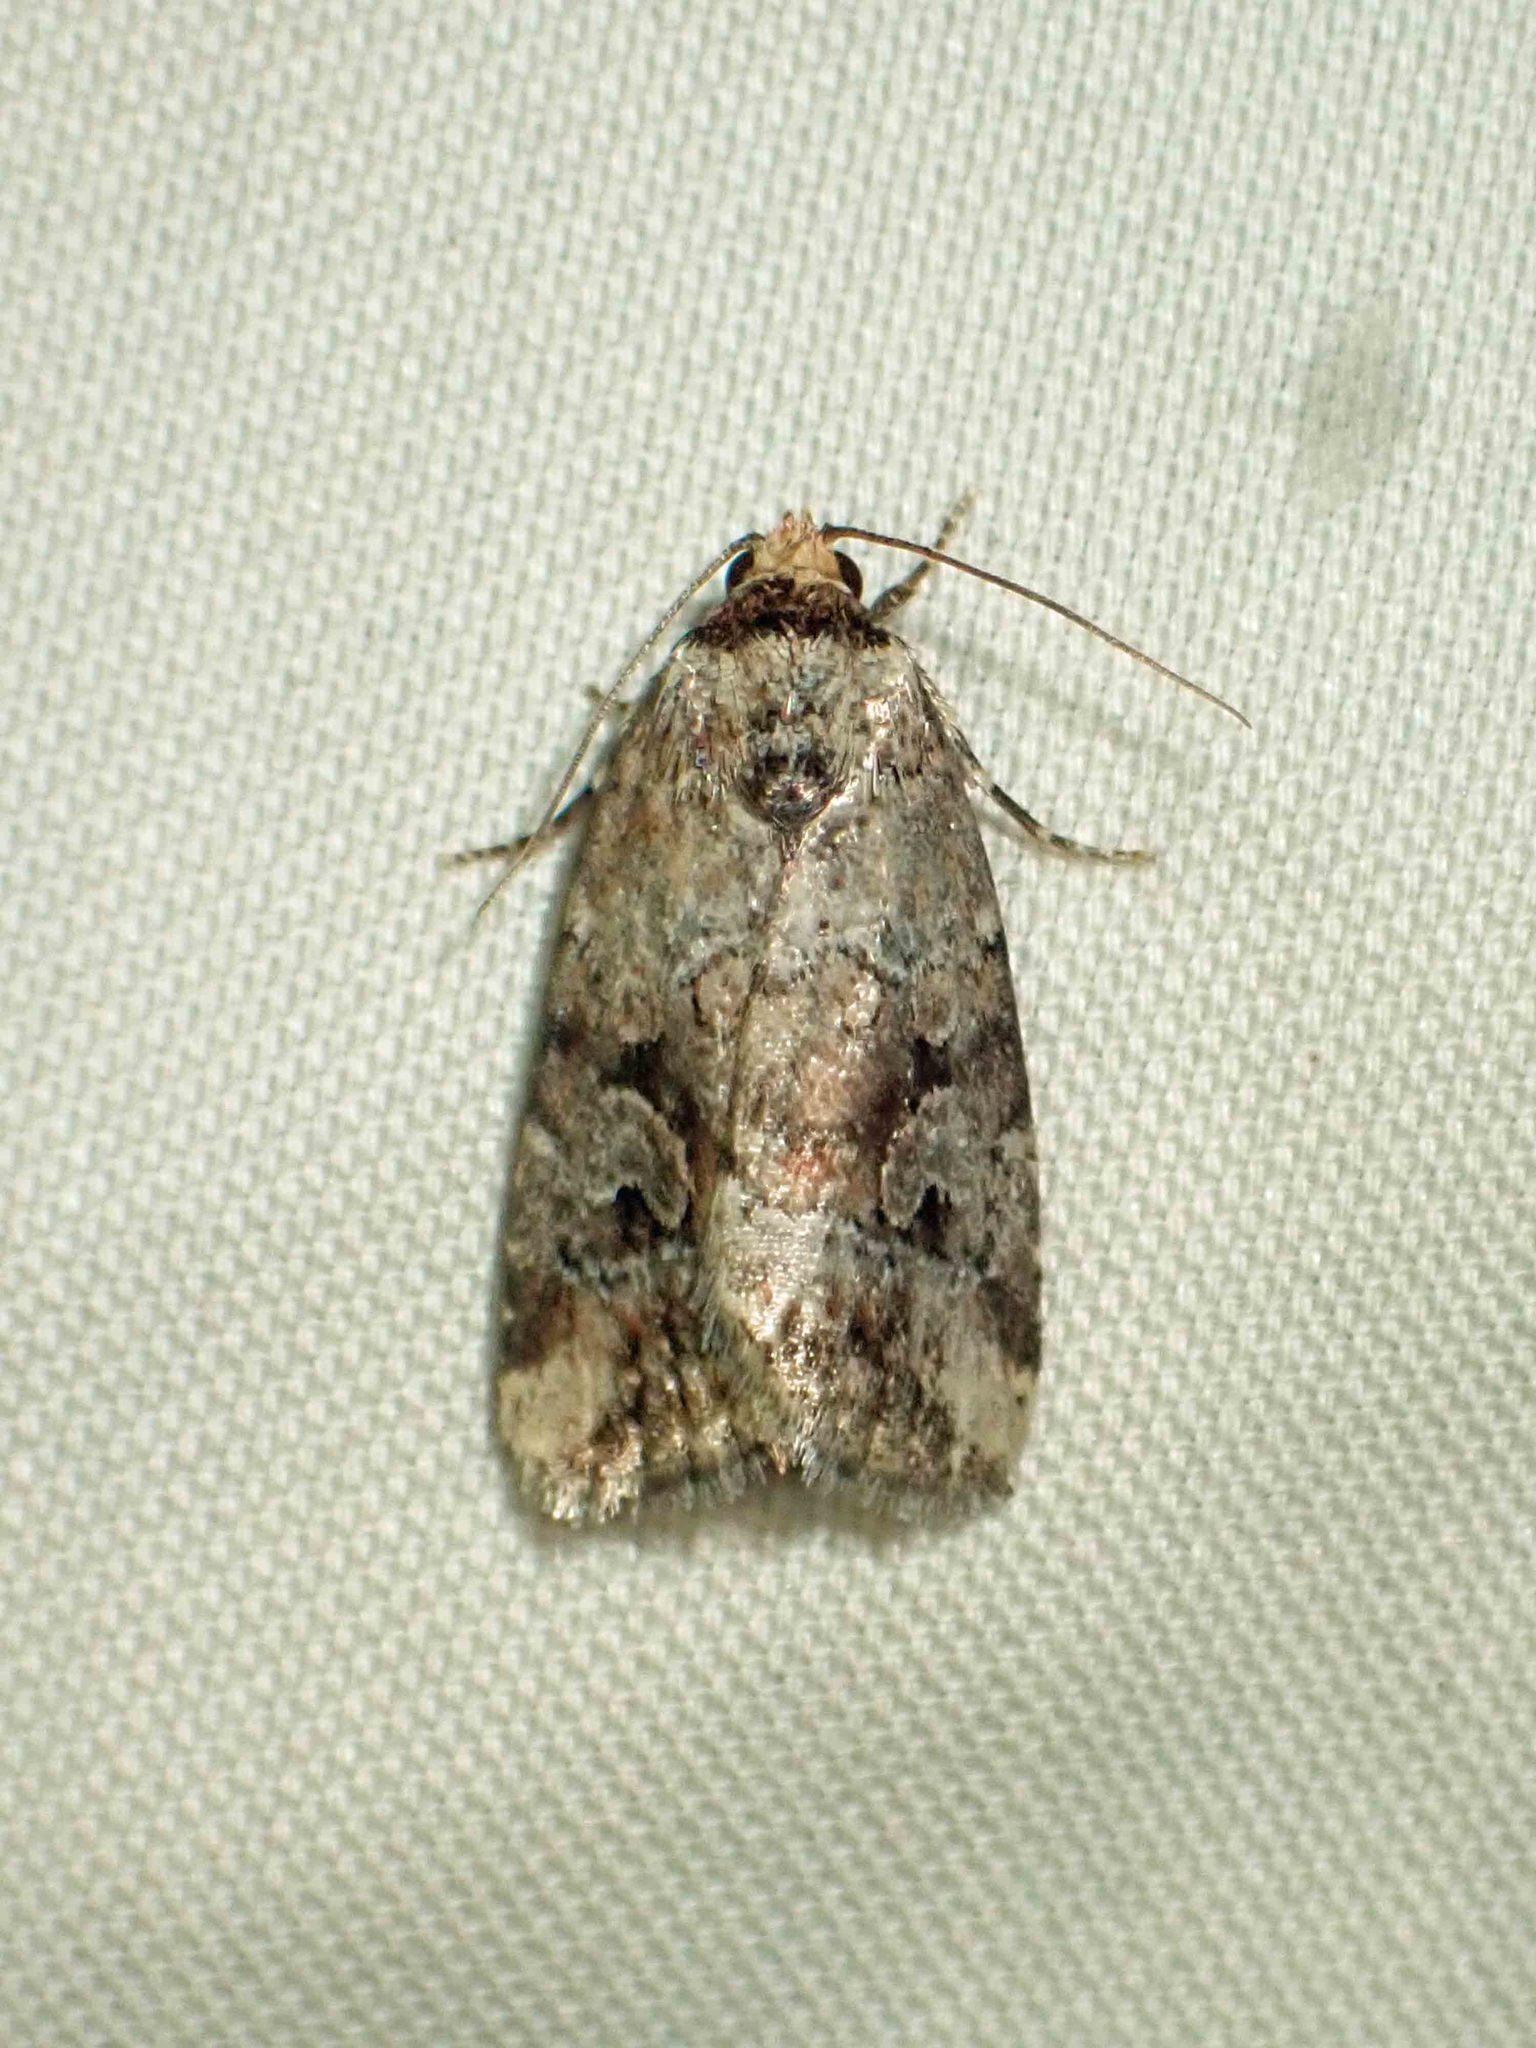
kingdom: Animalia
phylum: Arthropoda
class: Insecta
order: Lepidoptera
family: Noctuidae
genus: Elaphria
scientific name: Elaphria alapallida
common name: Pale-winged midget
